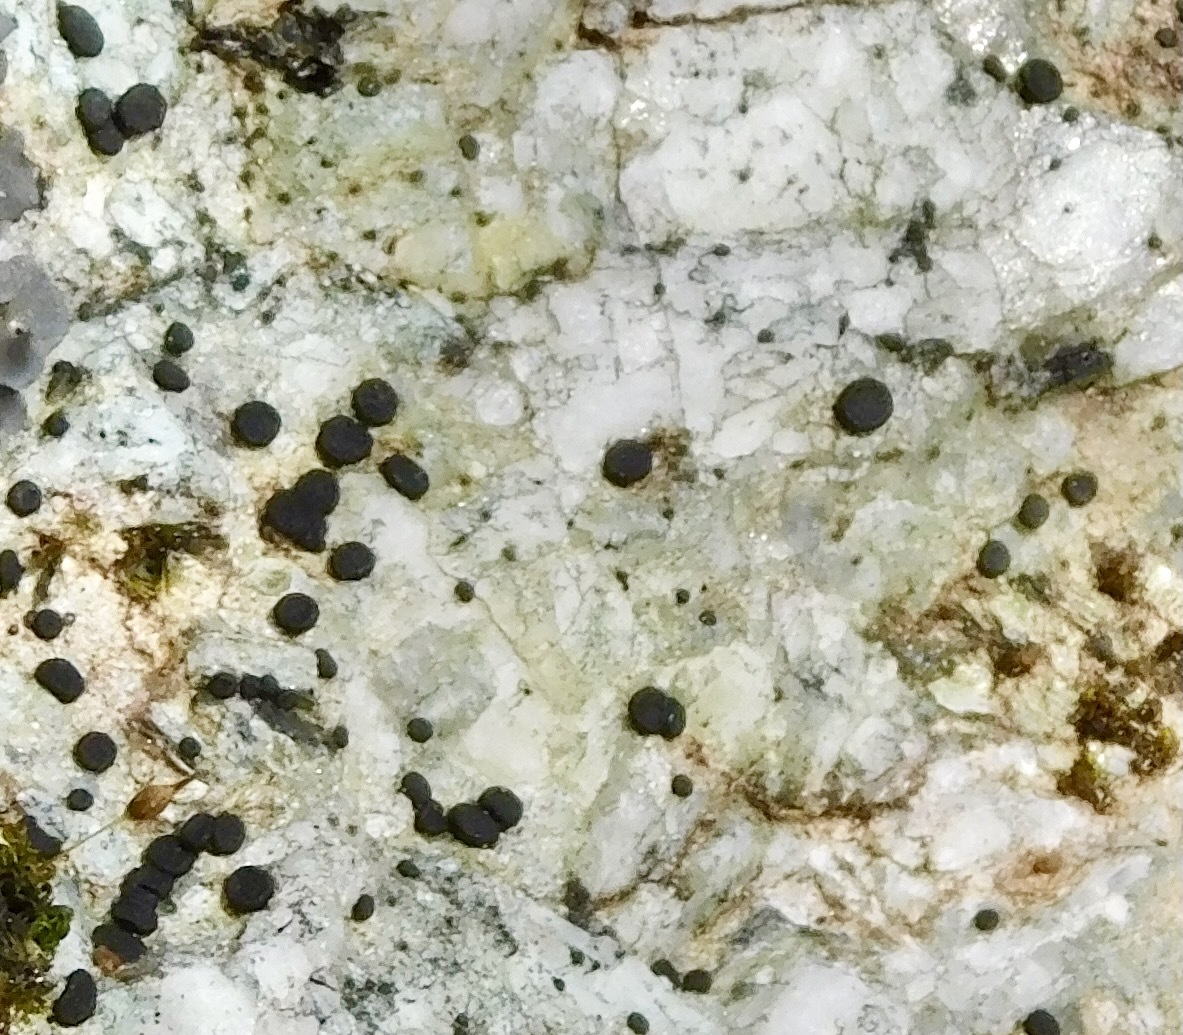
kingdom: Fungi
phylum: Ascomycota
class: Lecanoromycetes
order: Lecanorales
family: Ramalinaceae
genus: Bacidia
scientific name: Bacidia schweinitzii
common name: Surprise lichen
